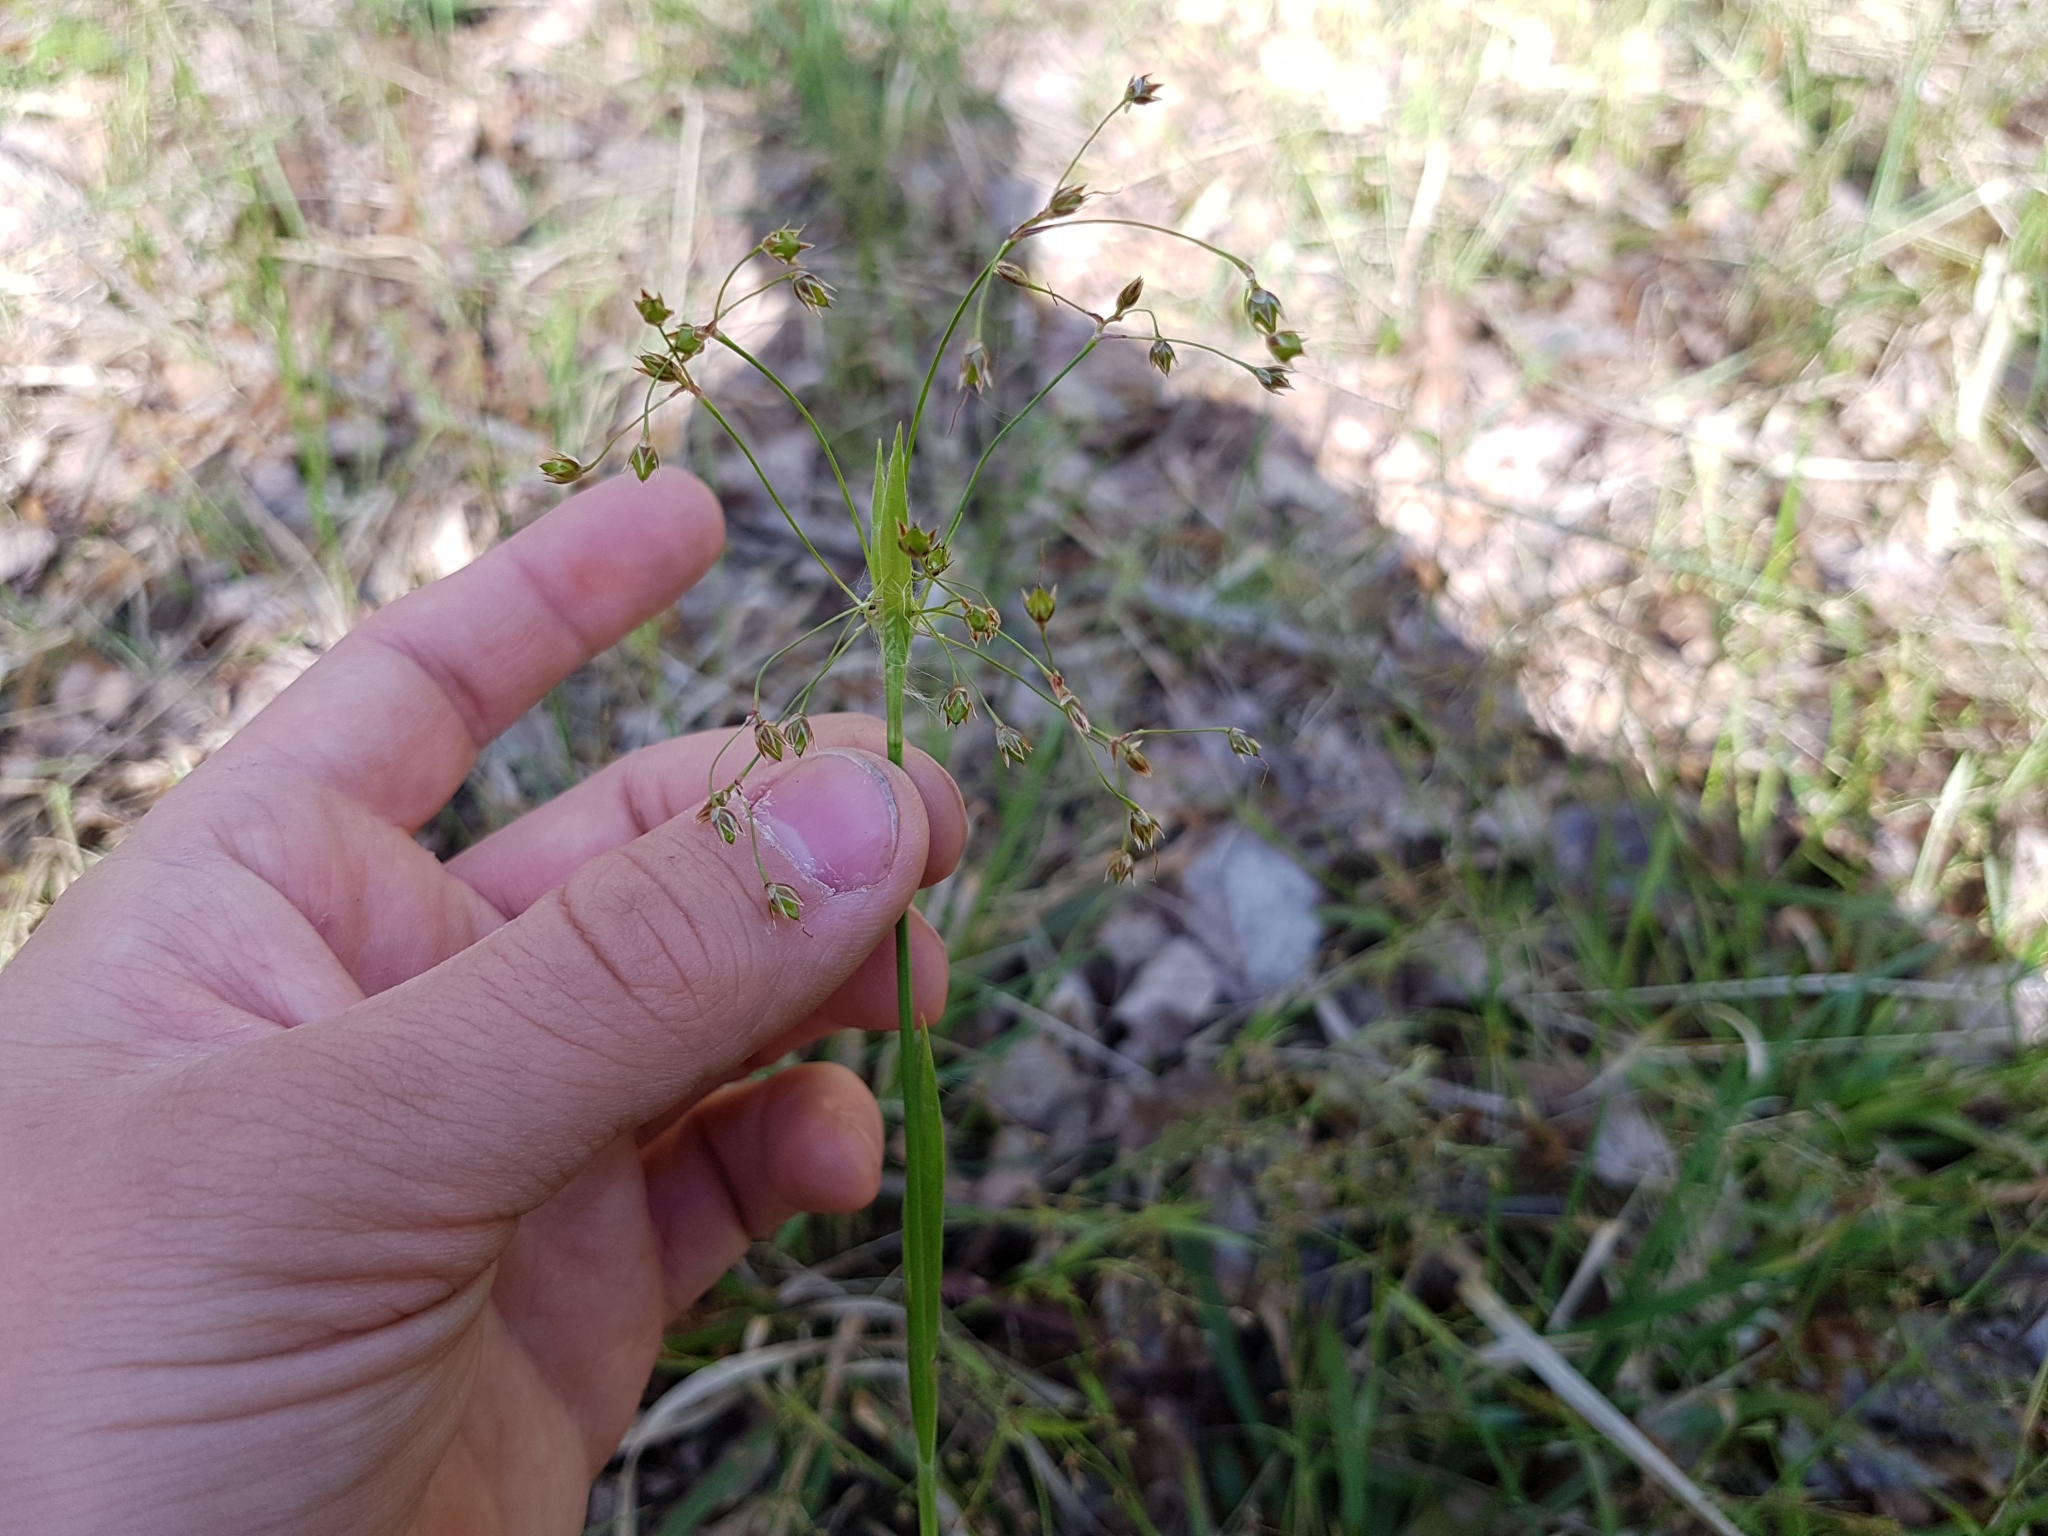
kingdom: Plantae
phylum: Tracheophyta
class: Liliopsida
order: Poales
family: Juncaceae
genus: Luzula
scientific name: Luzula pilosa
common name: Hairy wood-rush
